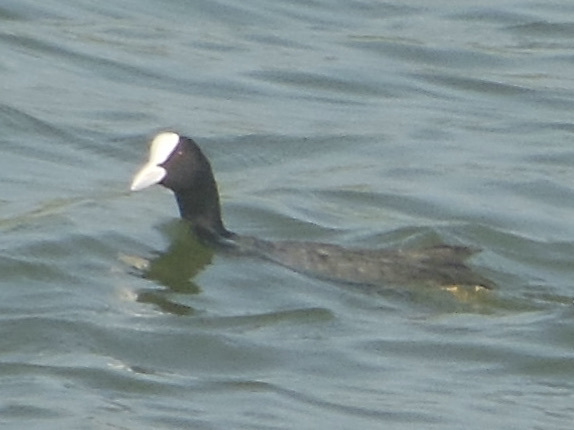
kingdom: Animalia
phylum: Chordata
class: Aves
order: Gruiformes
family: Rallidae
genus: Fulica
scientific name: Fulica atra
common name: Eurasian coot
